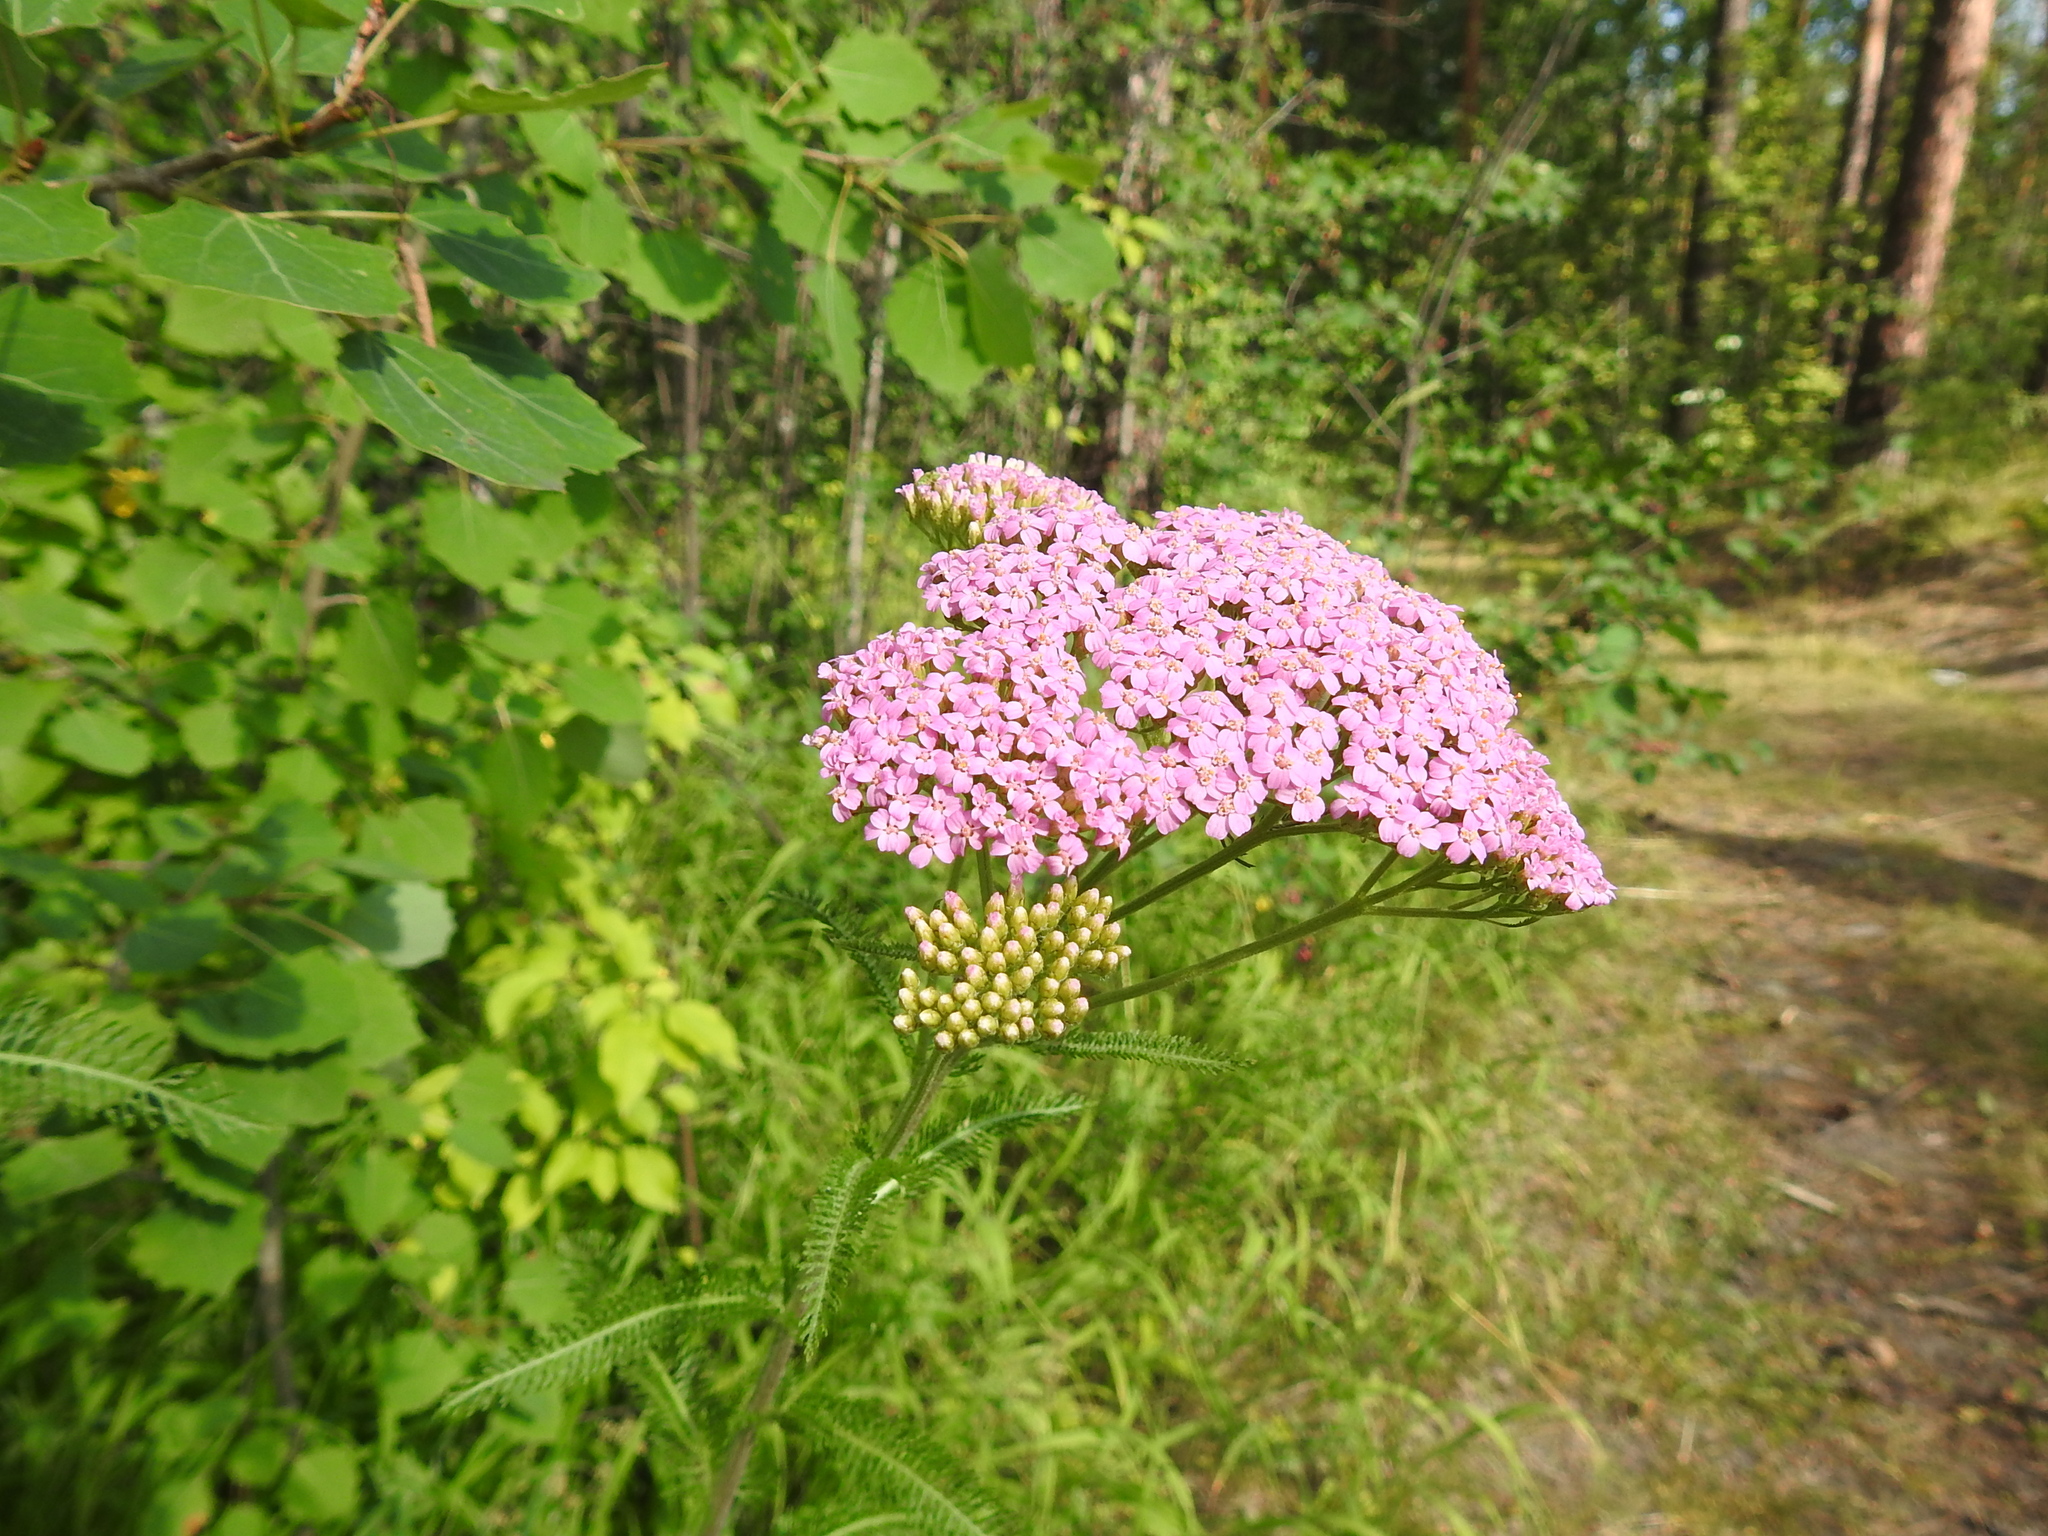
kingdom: Plantae
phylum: Tracheophyta
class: Magnoliopsida
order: Asterales
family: Asteraceae
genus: Achillea
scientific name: Achillea asiatica
